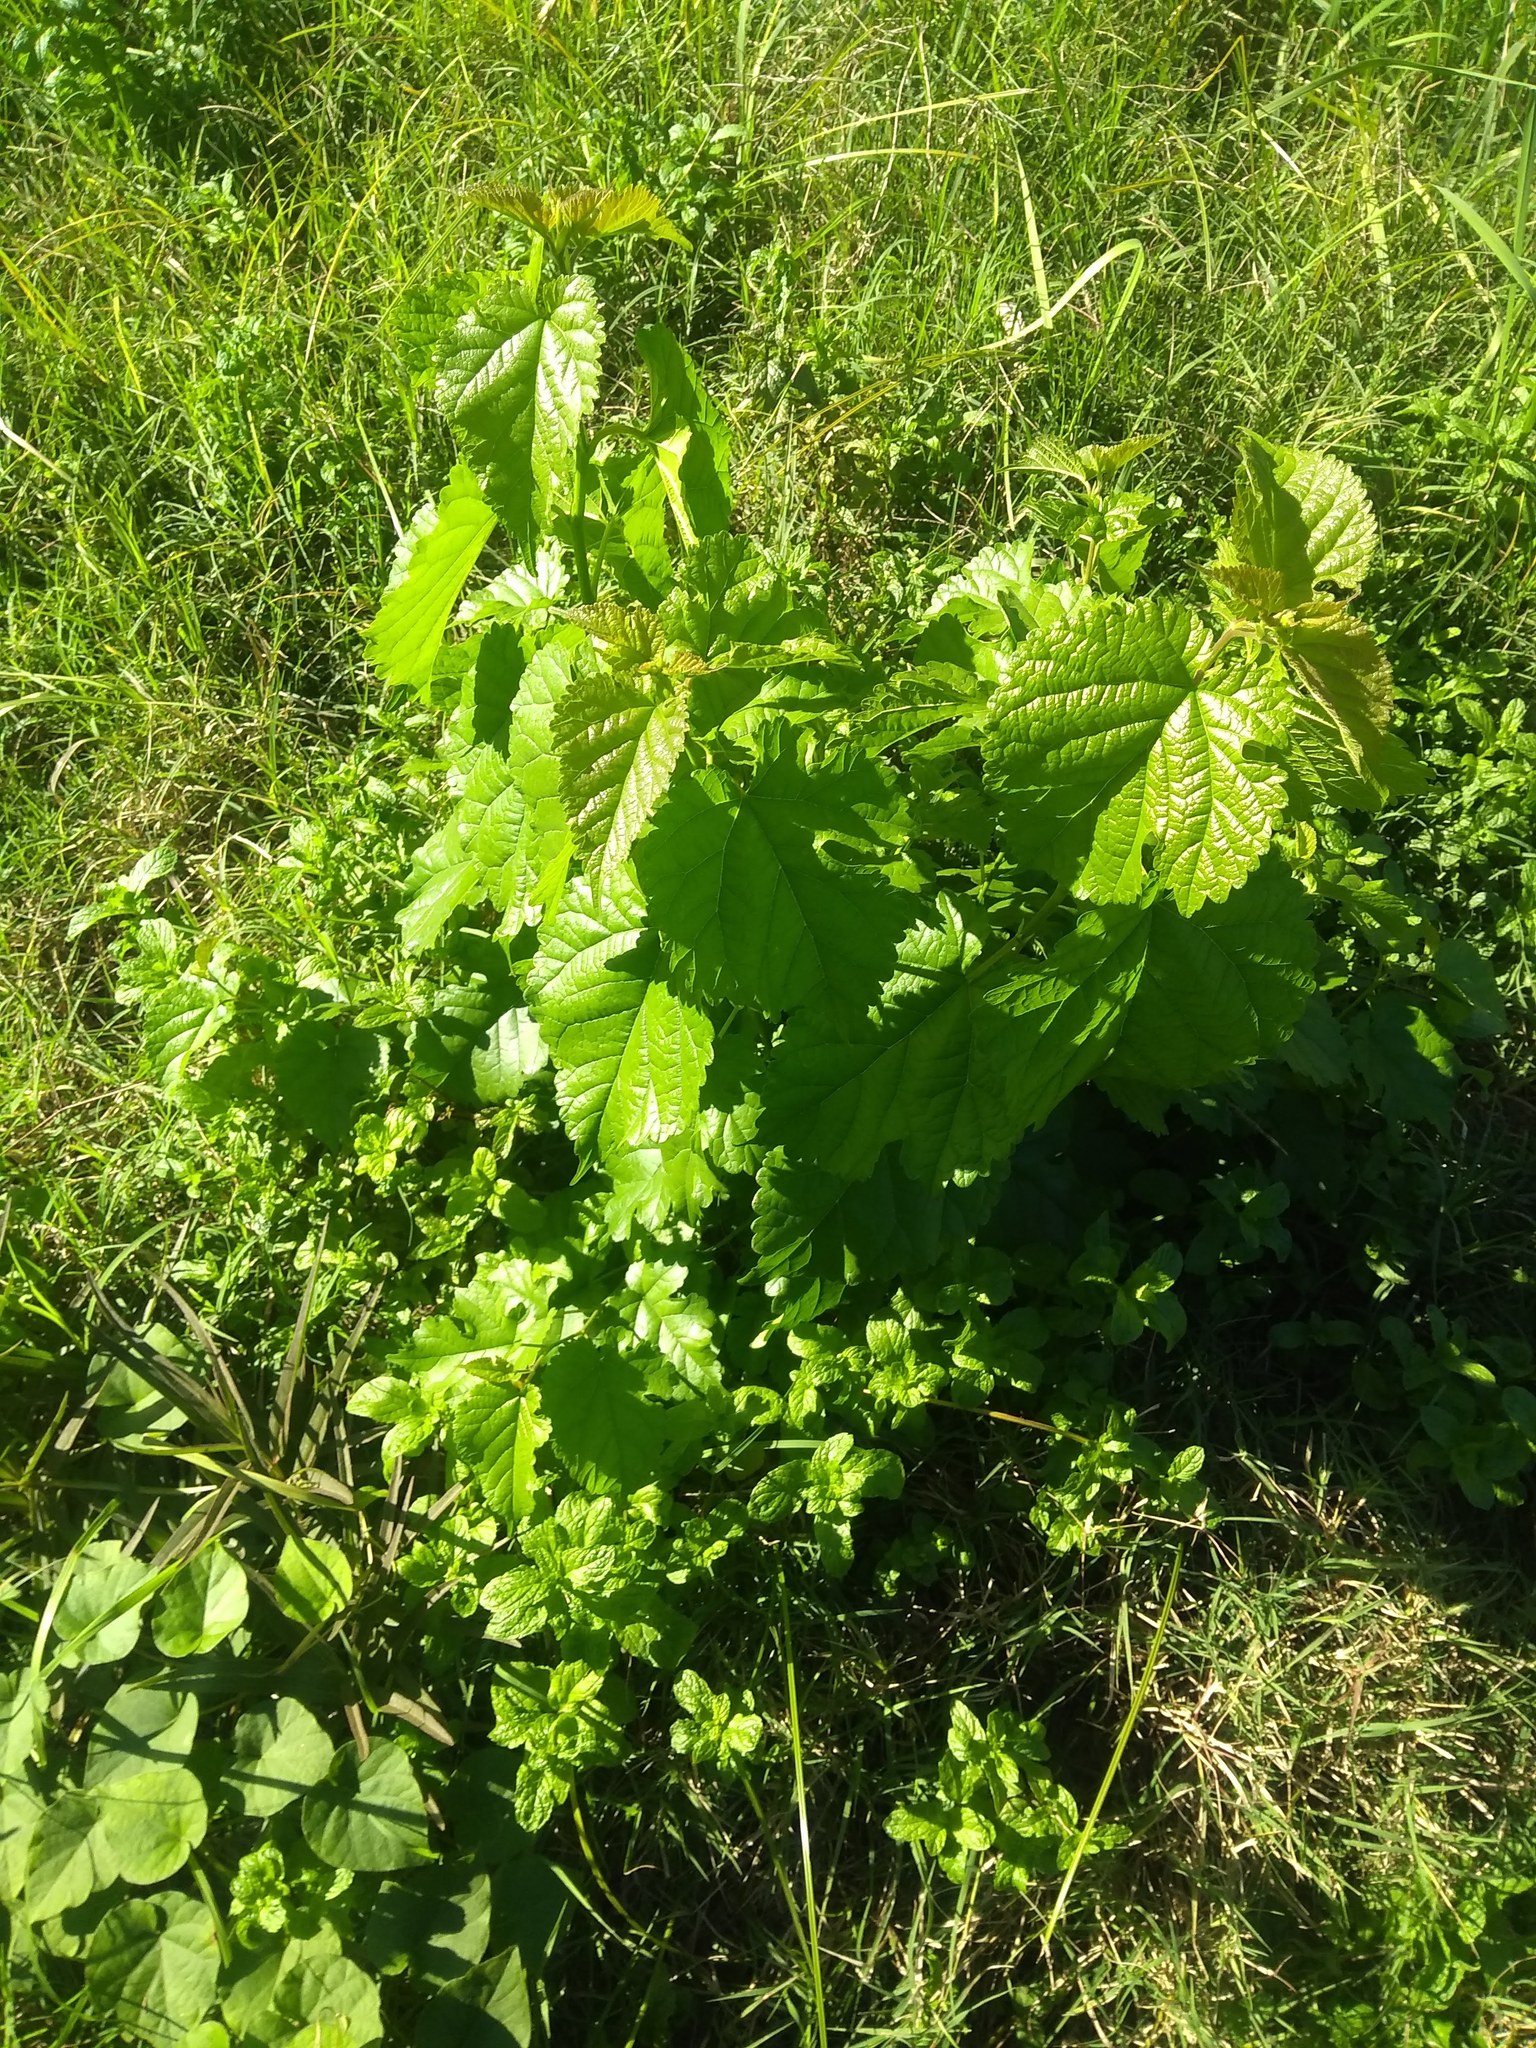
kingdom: Plantae
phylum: Tracheophyta
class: Magnoliopsida
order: Rosales
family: Moraceae
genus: Morus
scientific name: Morus alba
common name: White mulberry
